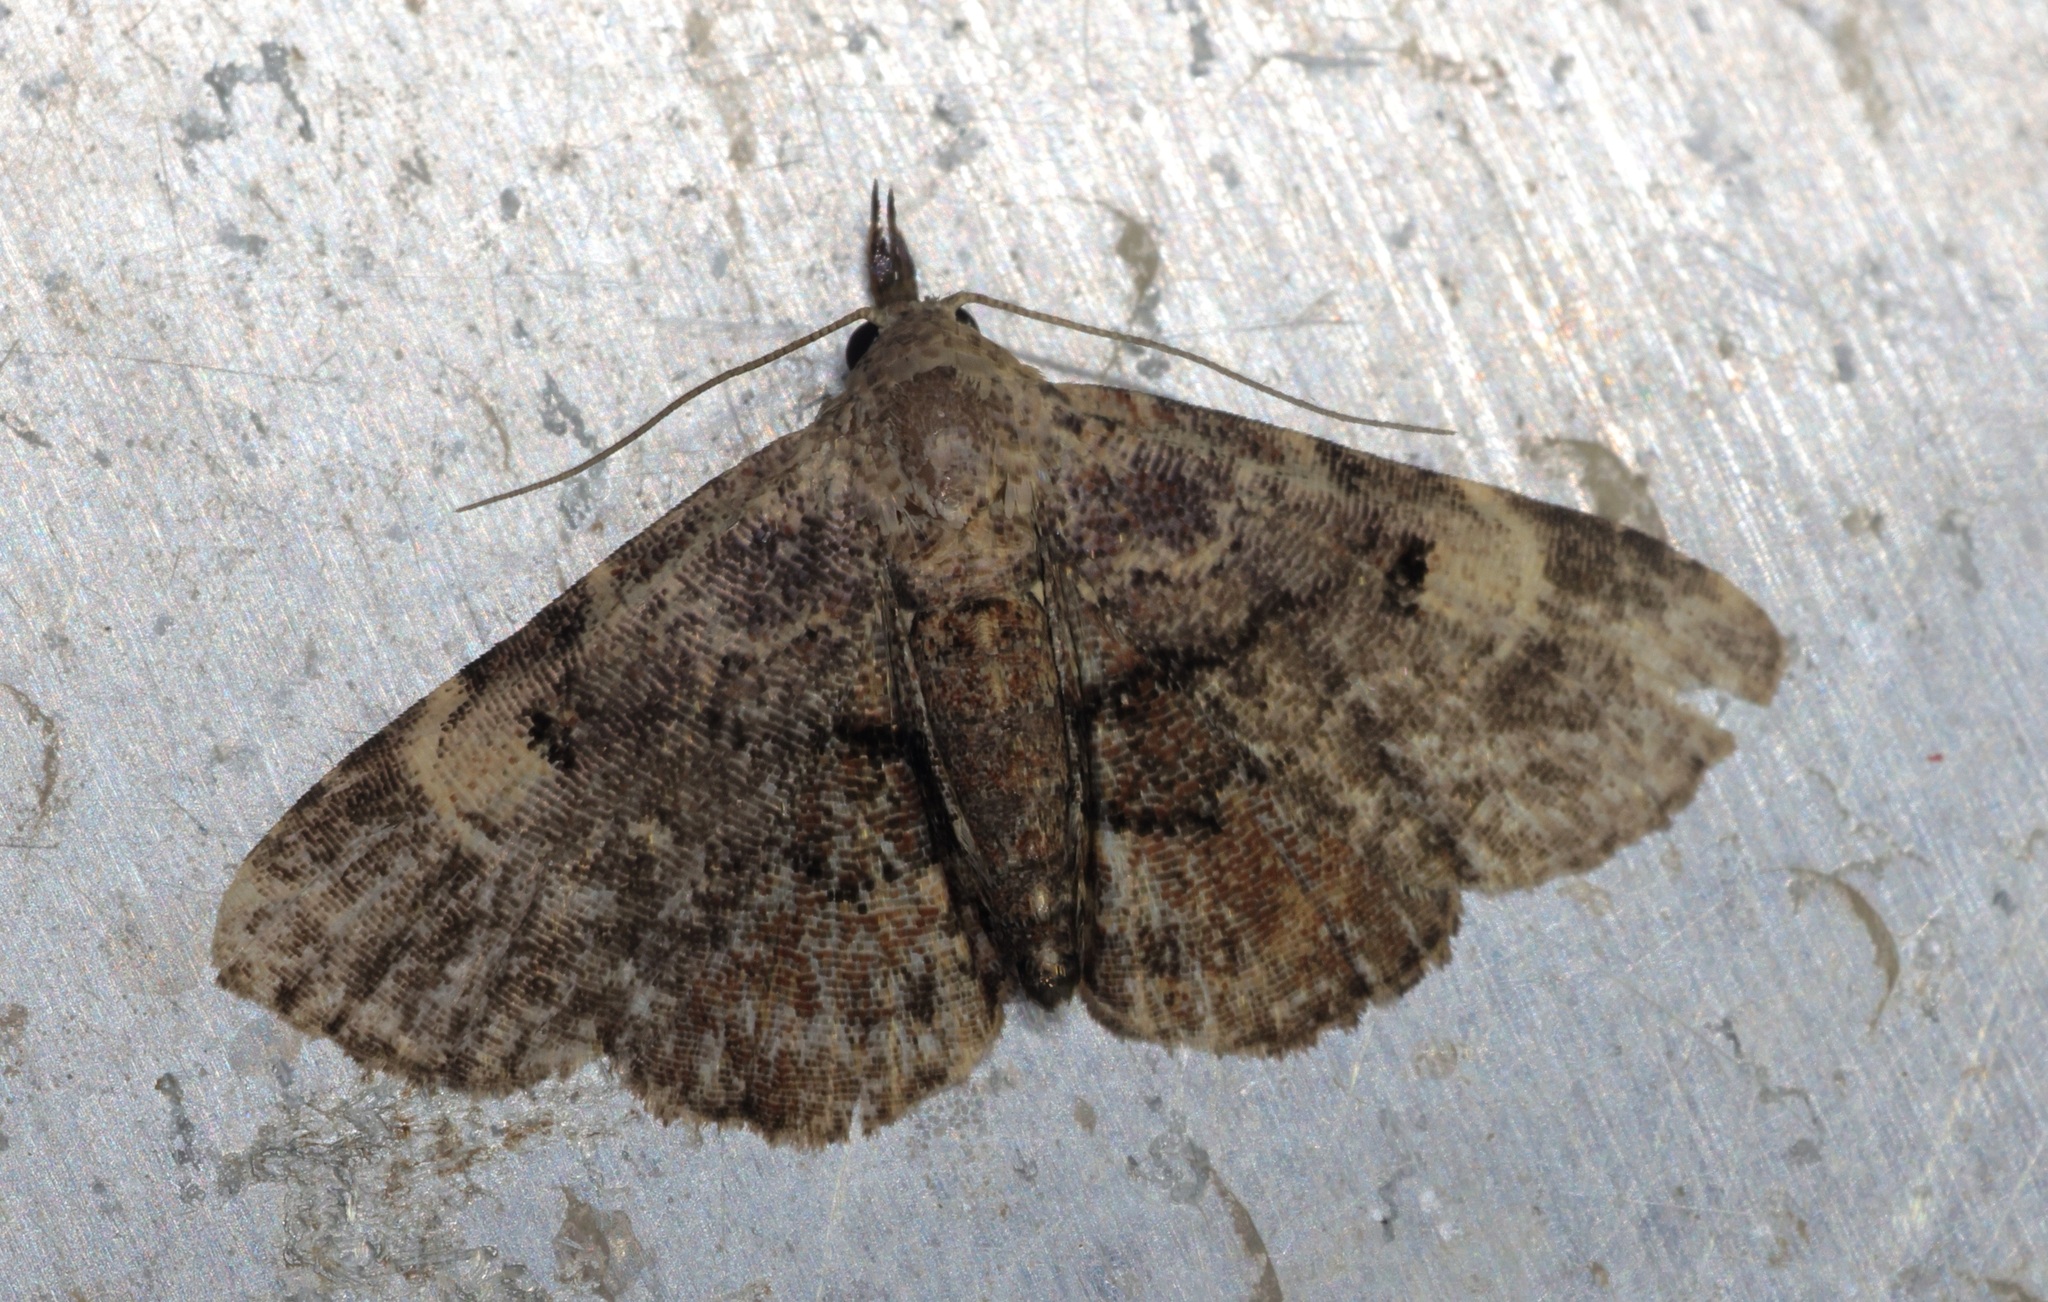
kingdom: Animalia
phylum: Arthropoda
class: Insecta
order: Lepidoptera
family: Erebidae
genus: Maguda
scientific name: Maguda suffusa
